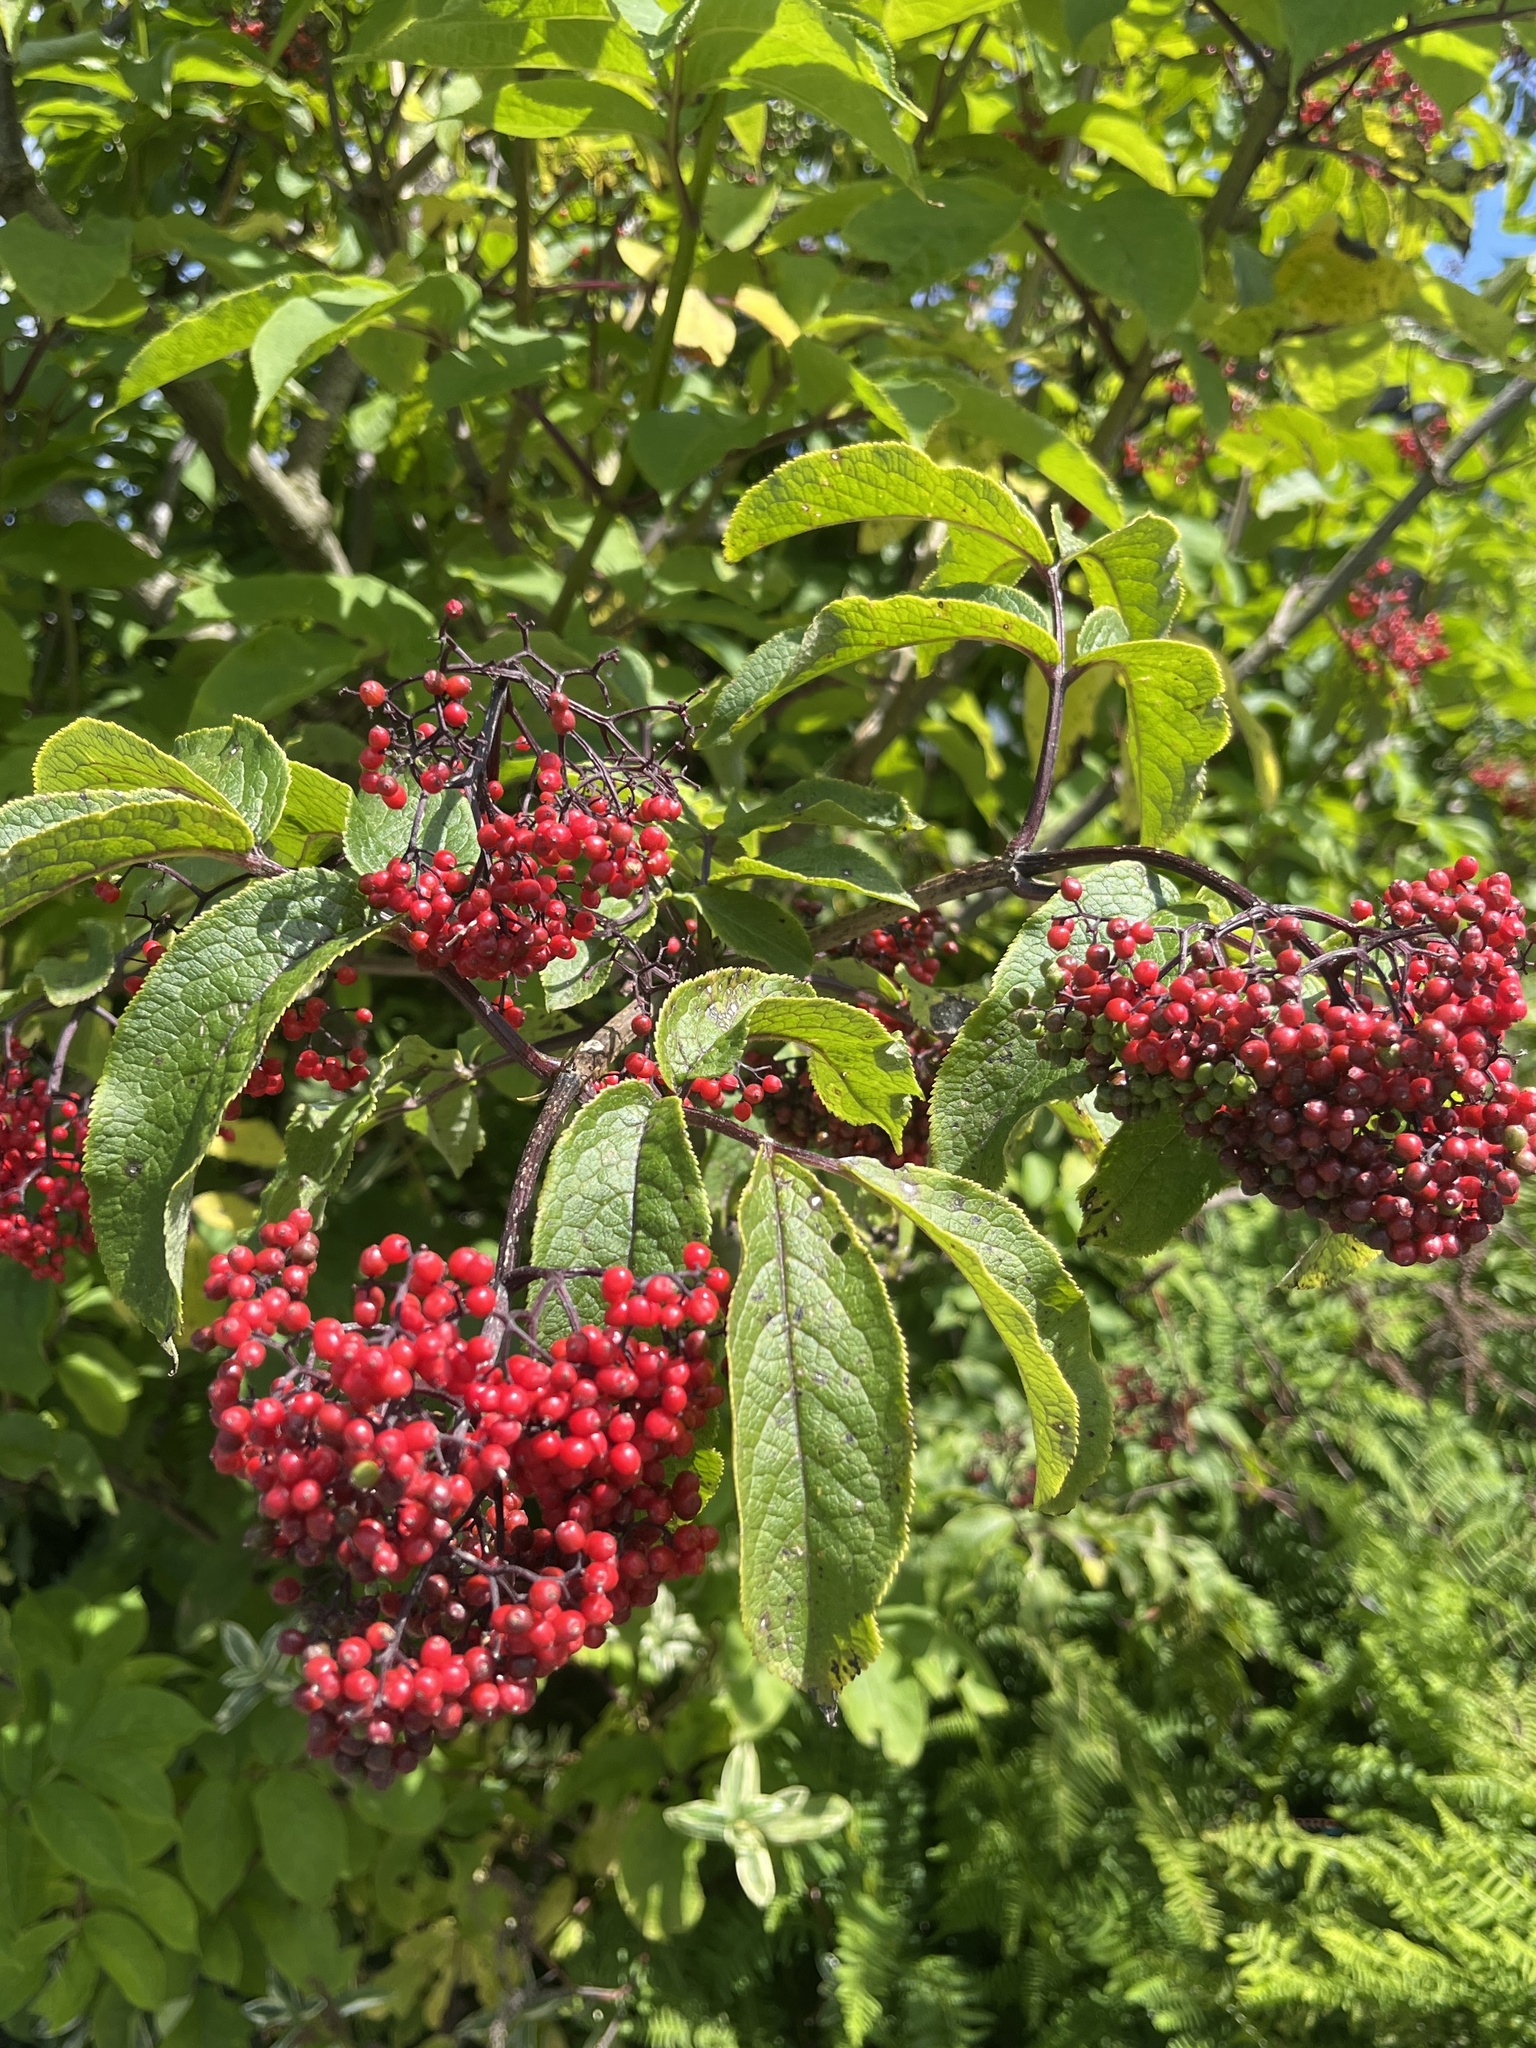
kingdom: Plantae
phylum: Tracheophyta
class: Magnoliopsida
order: Dipsacales
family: Viburnaceae
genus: Sambucus
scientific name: Sambucus racemosa
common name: Red-berried elder
